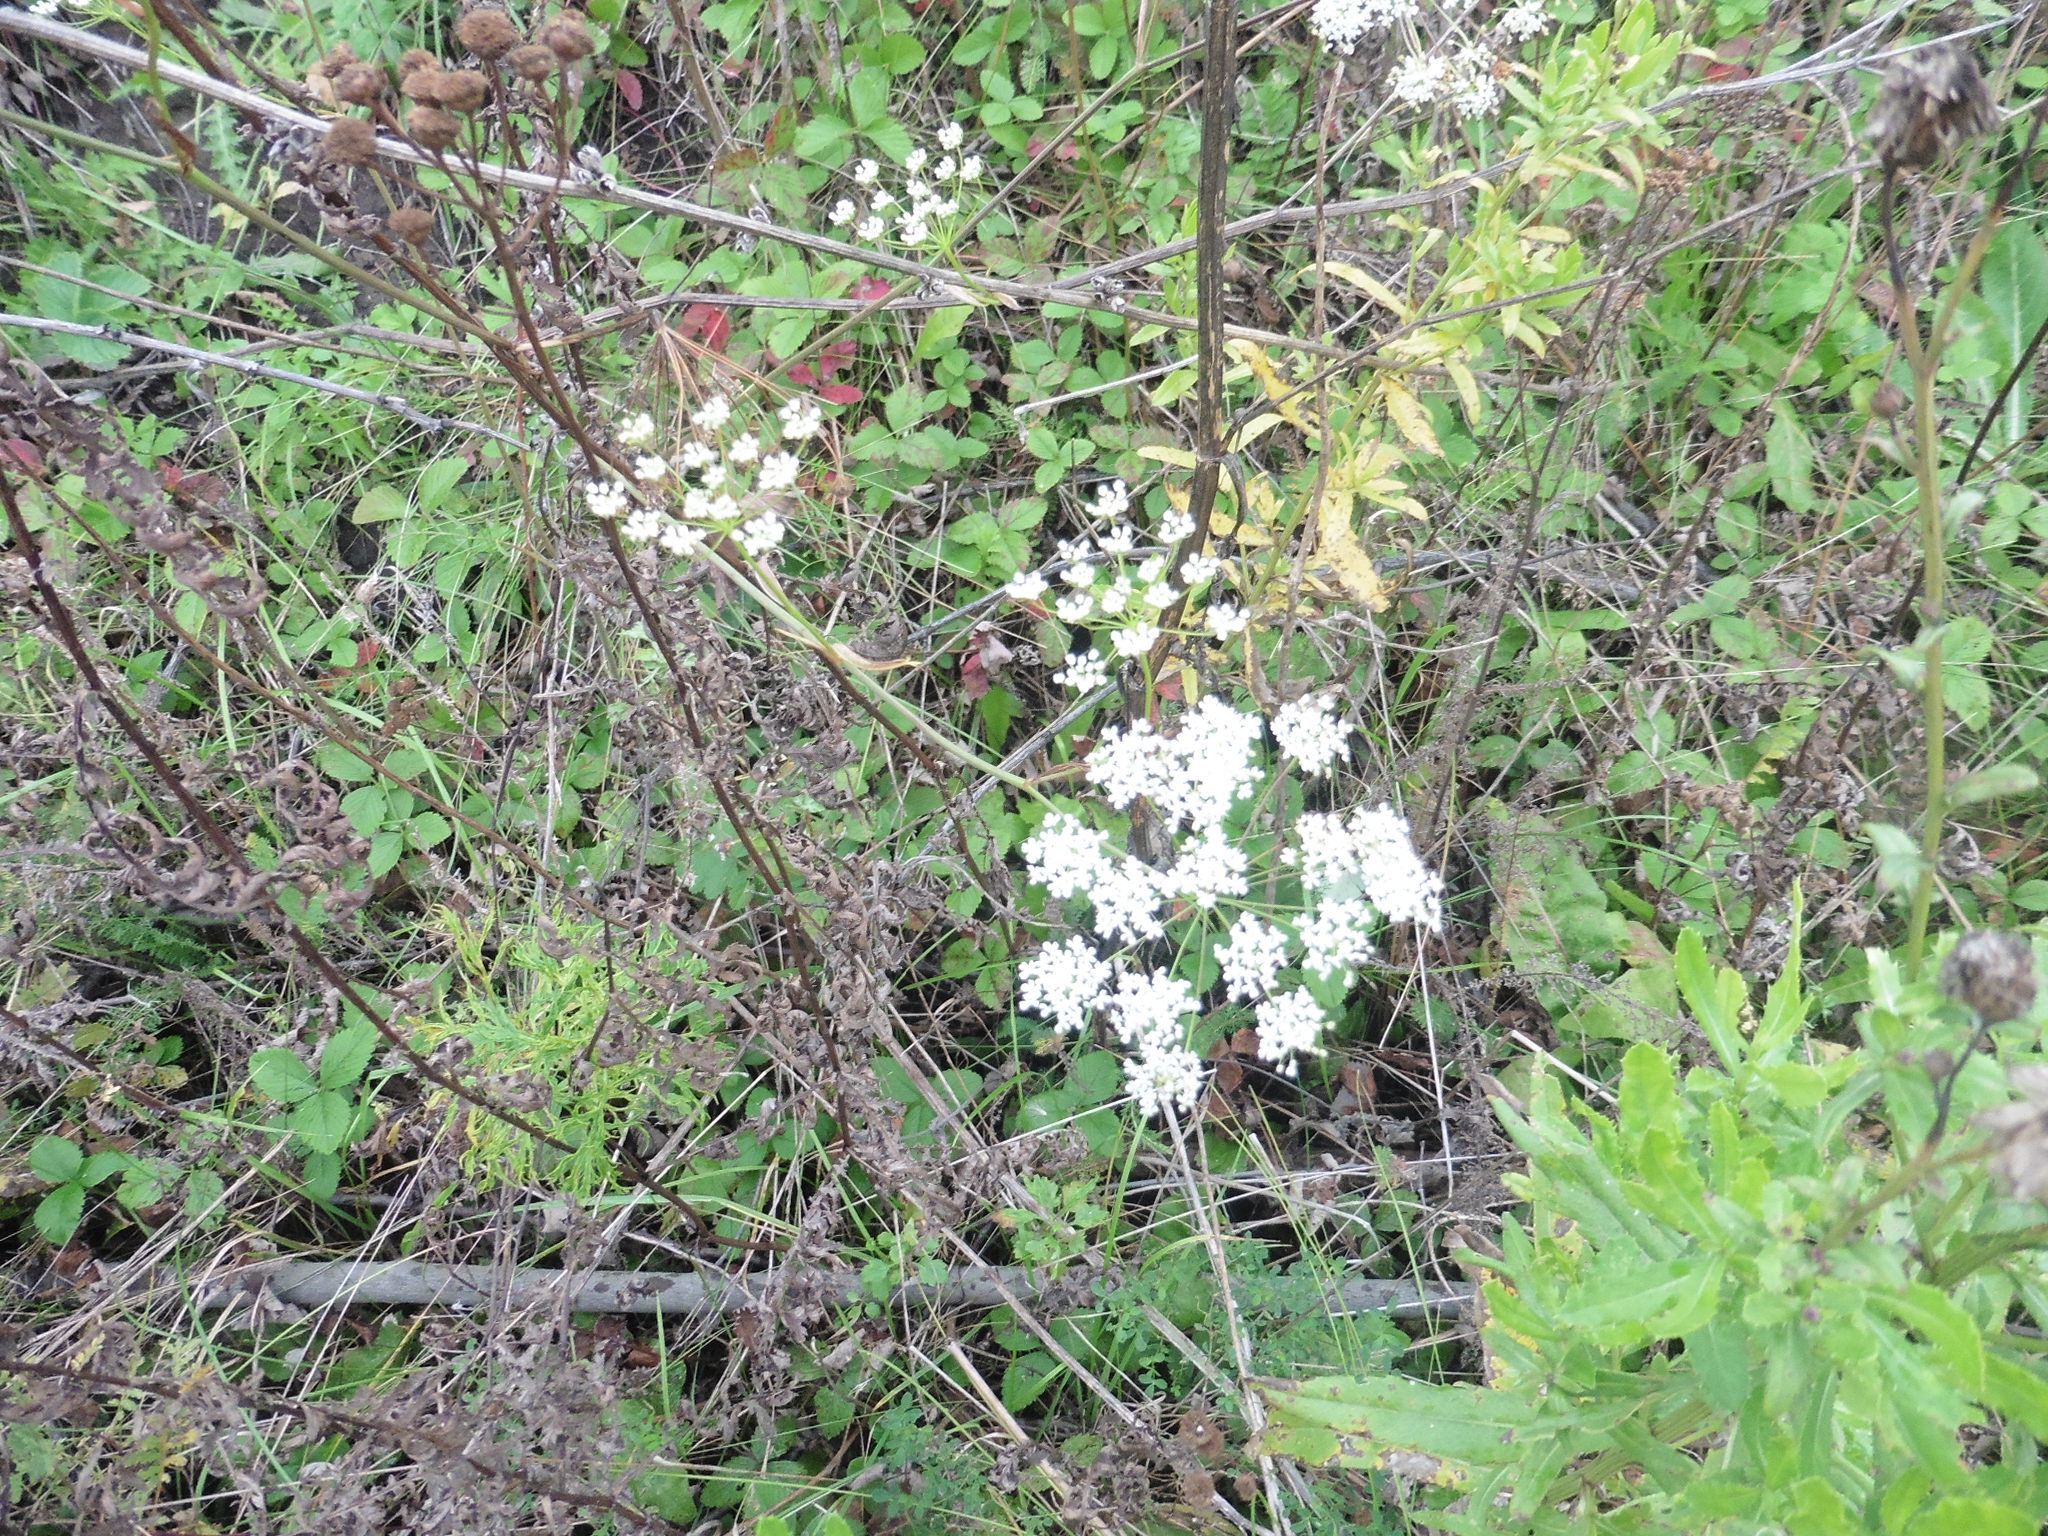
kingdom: Plantae
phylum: Tracheophyta
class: Magnoliopsida
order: Apiales
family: Apiaceae
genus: Pimpinella
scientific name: Pimpinella saxifraga
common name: Burnet-saxifrage
